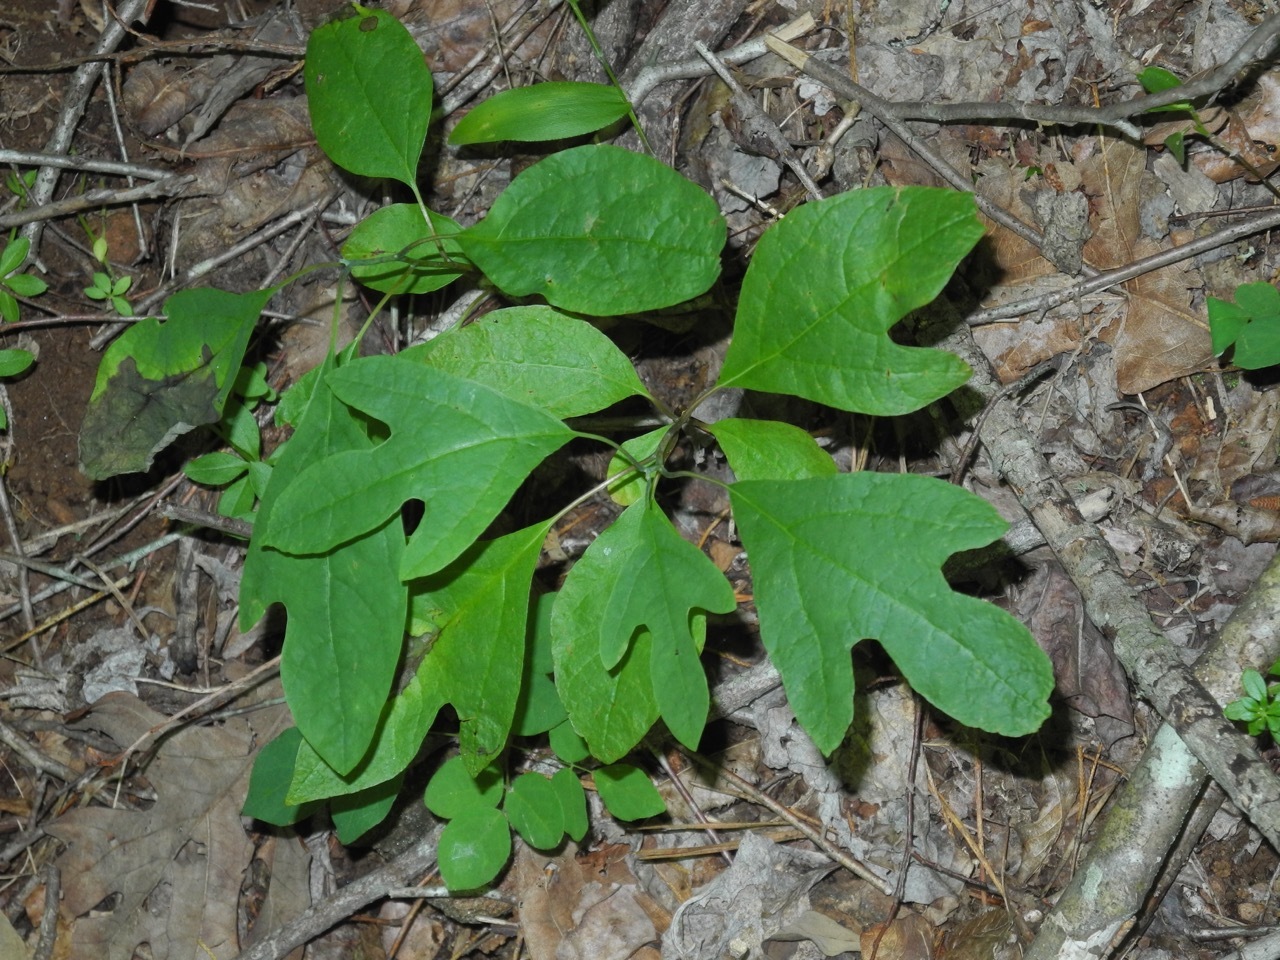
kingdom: Plantae
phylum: Tracheophyta
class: Magnoliopsida
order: Laurales
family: Lauraceae
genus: Sassafras
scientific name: Sassafras albidum
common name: Sassafras
